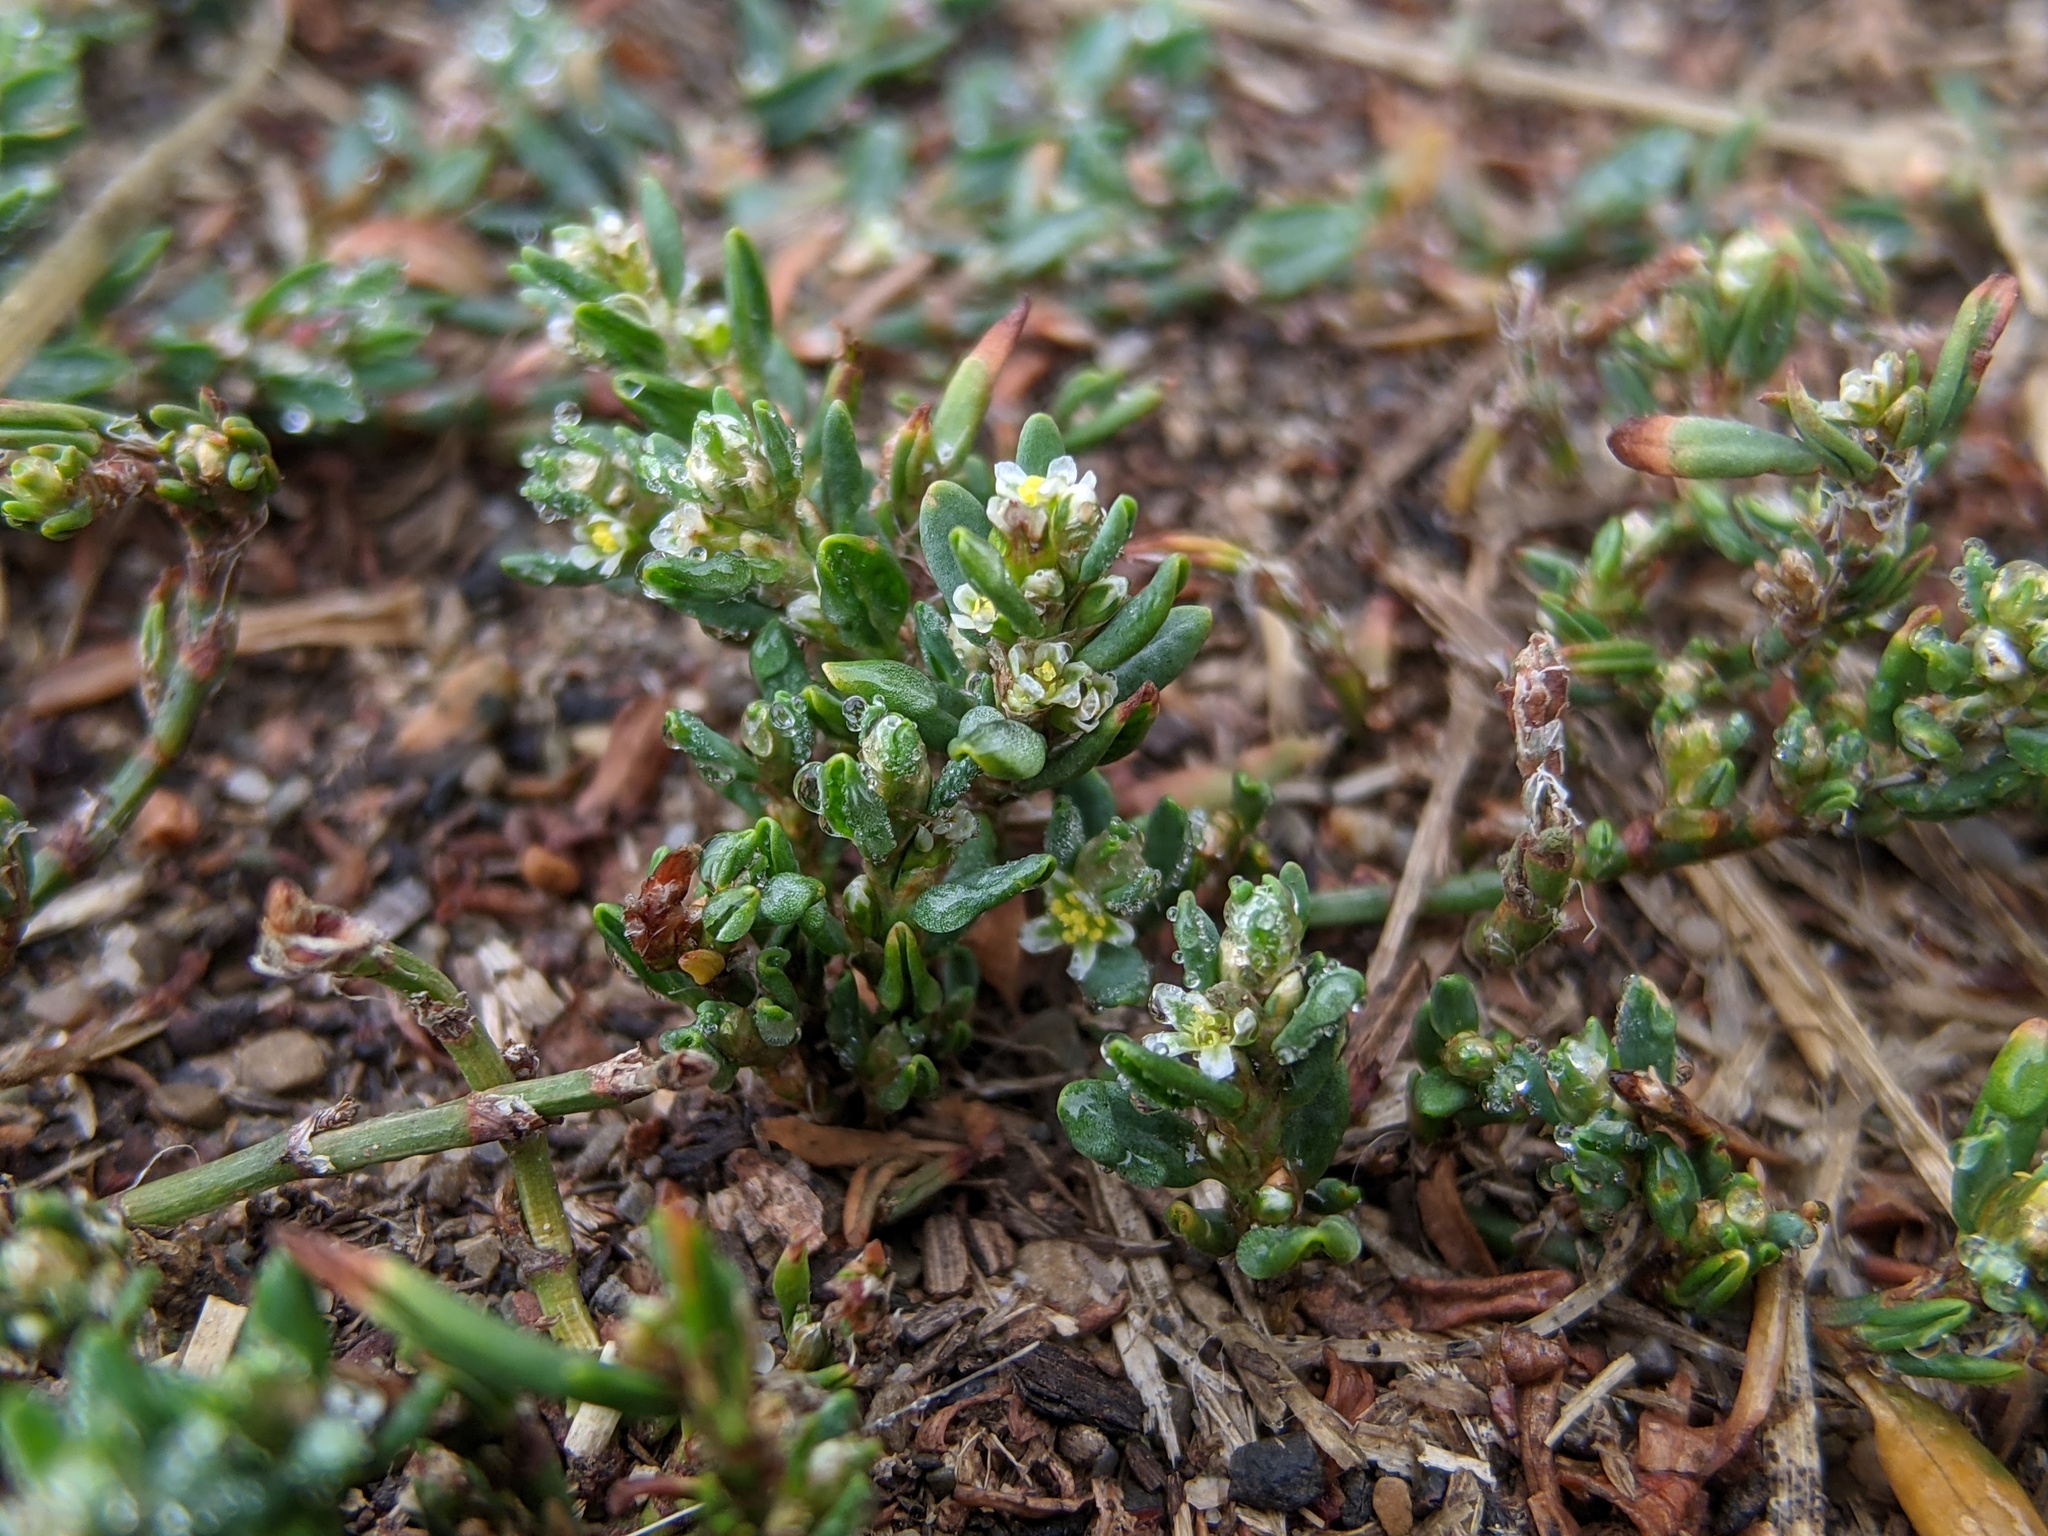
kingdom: Plantae
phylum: Tracheophyta
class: Magnoliopsida
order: Caryophyllales
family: Polygonaceae
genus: Polygonum
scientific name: Polygonum aviculare
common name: Prostrate knotweed
